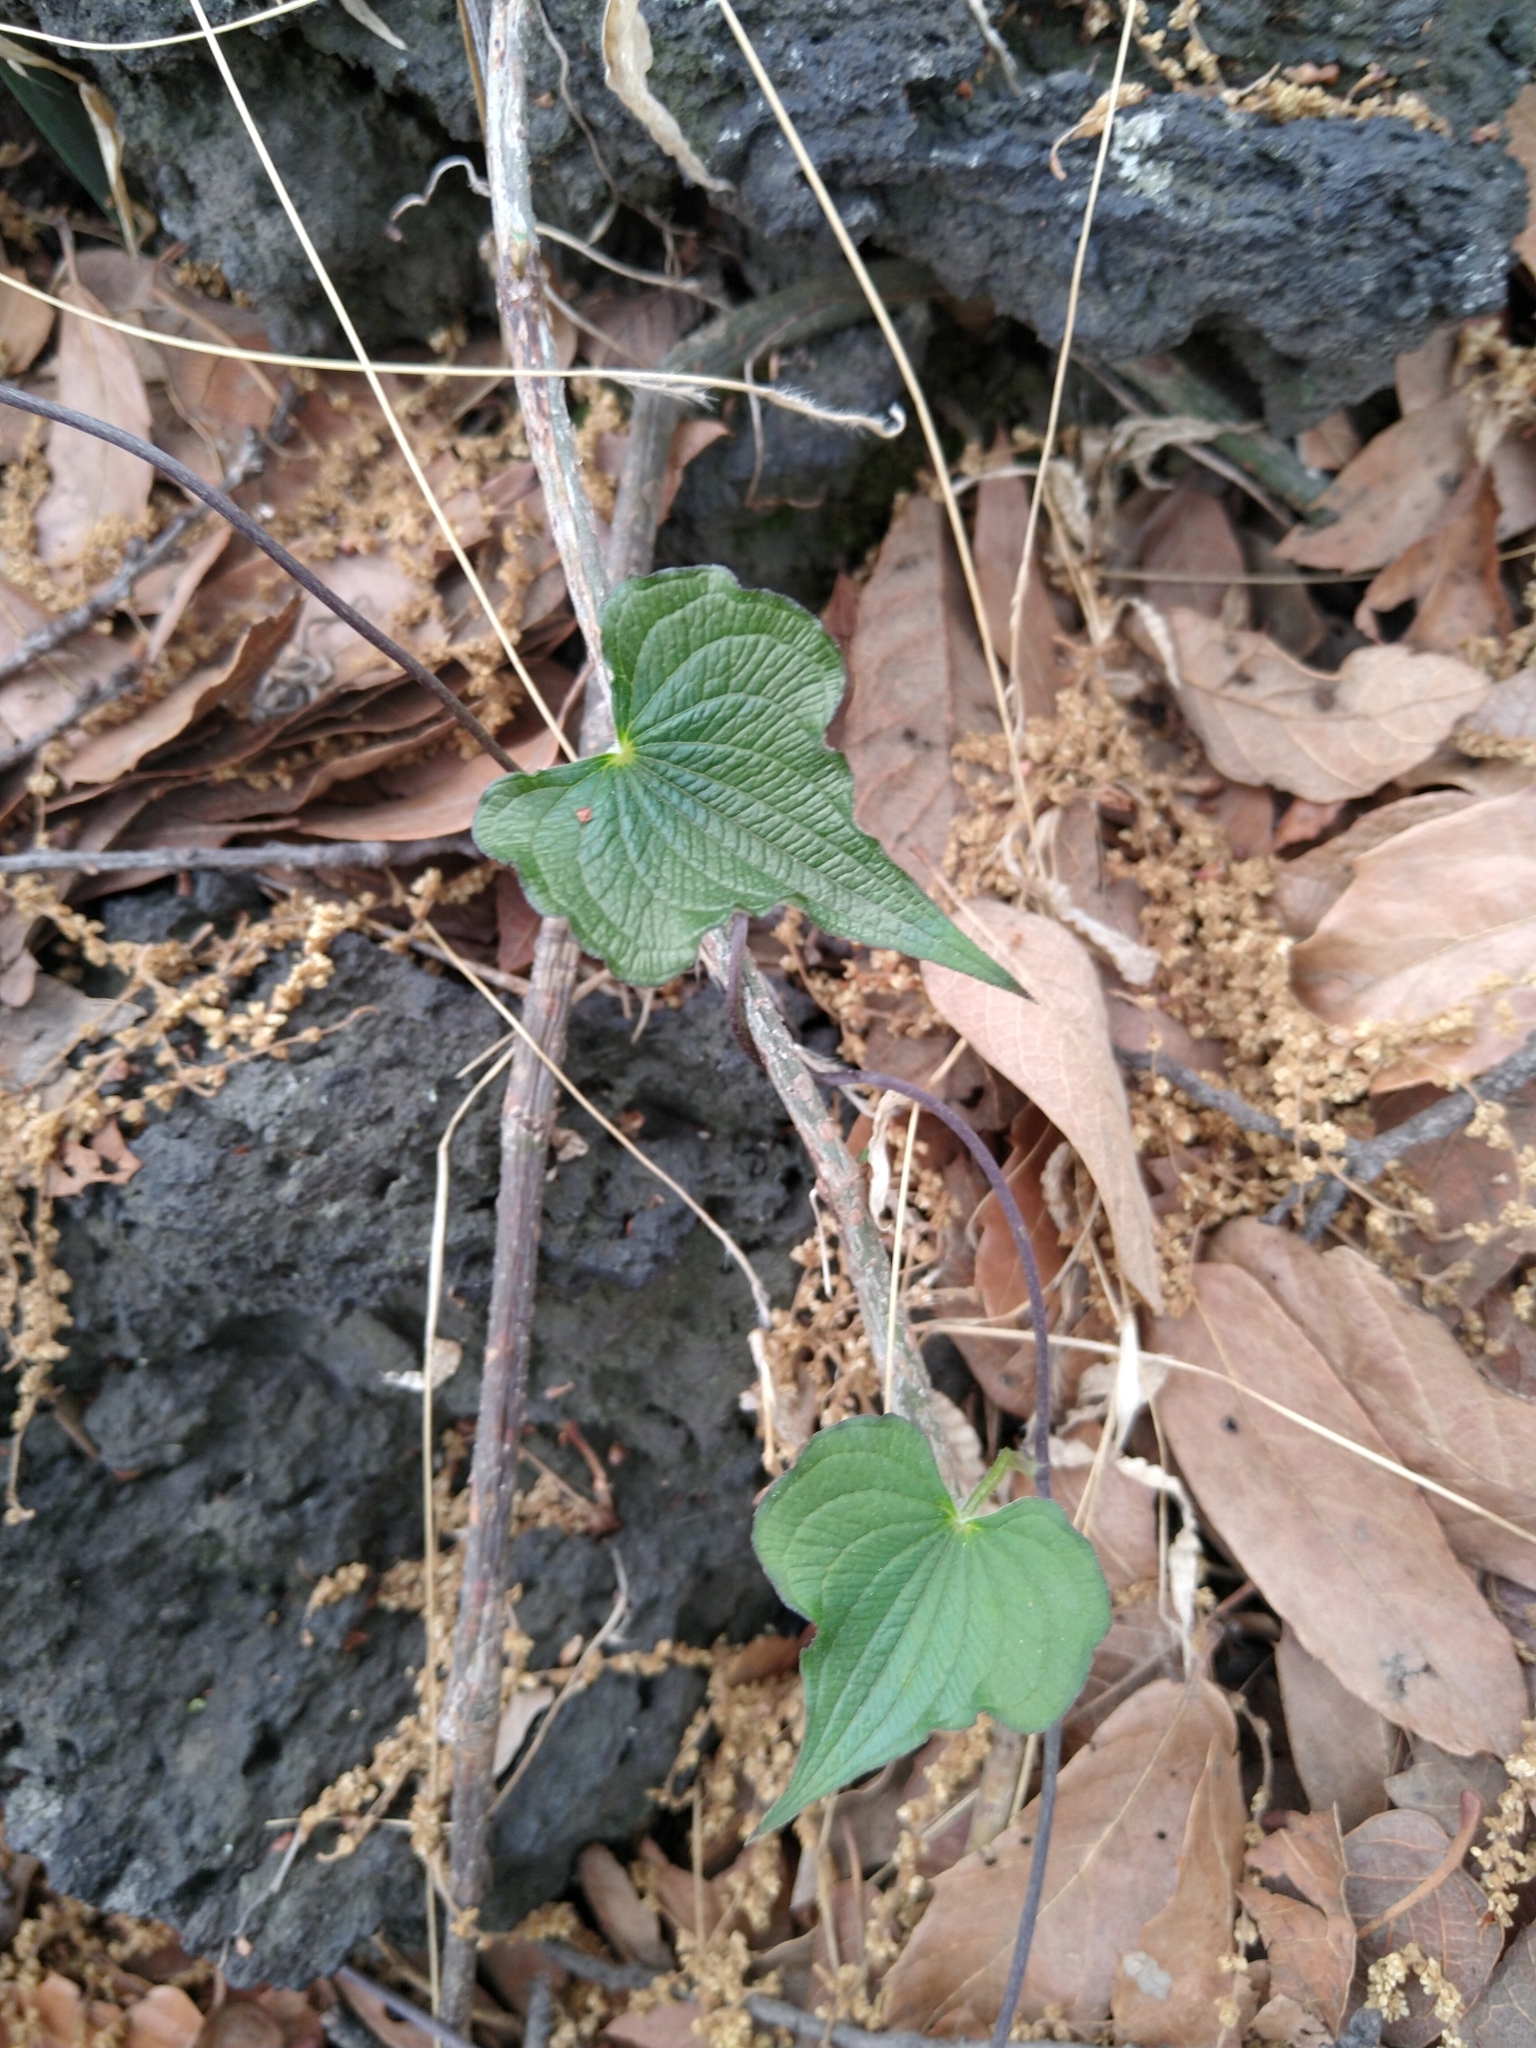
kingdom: Plantae
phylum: Tracheophyta
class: Liliopsida
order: Dioscoreales
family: Dioscoreaceae
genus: Dioscorea
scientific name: Dioscorea galeottiana
